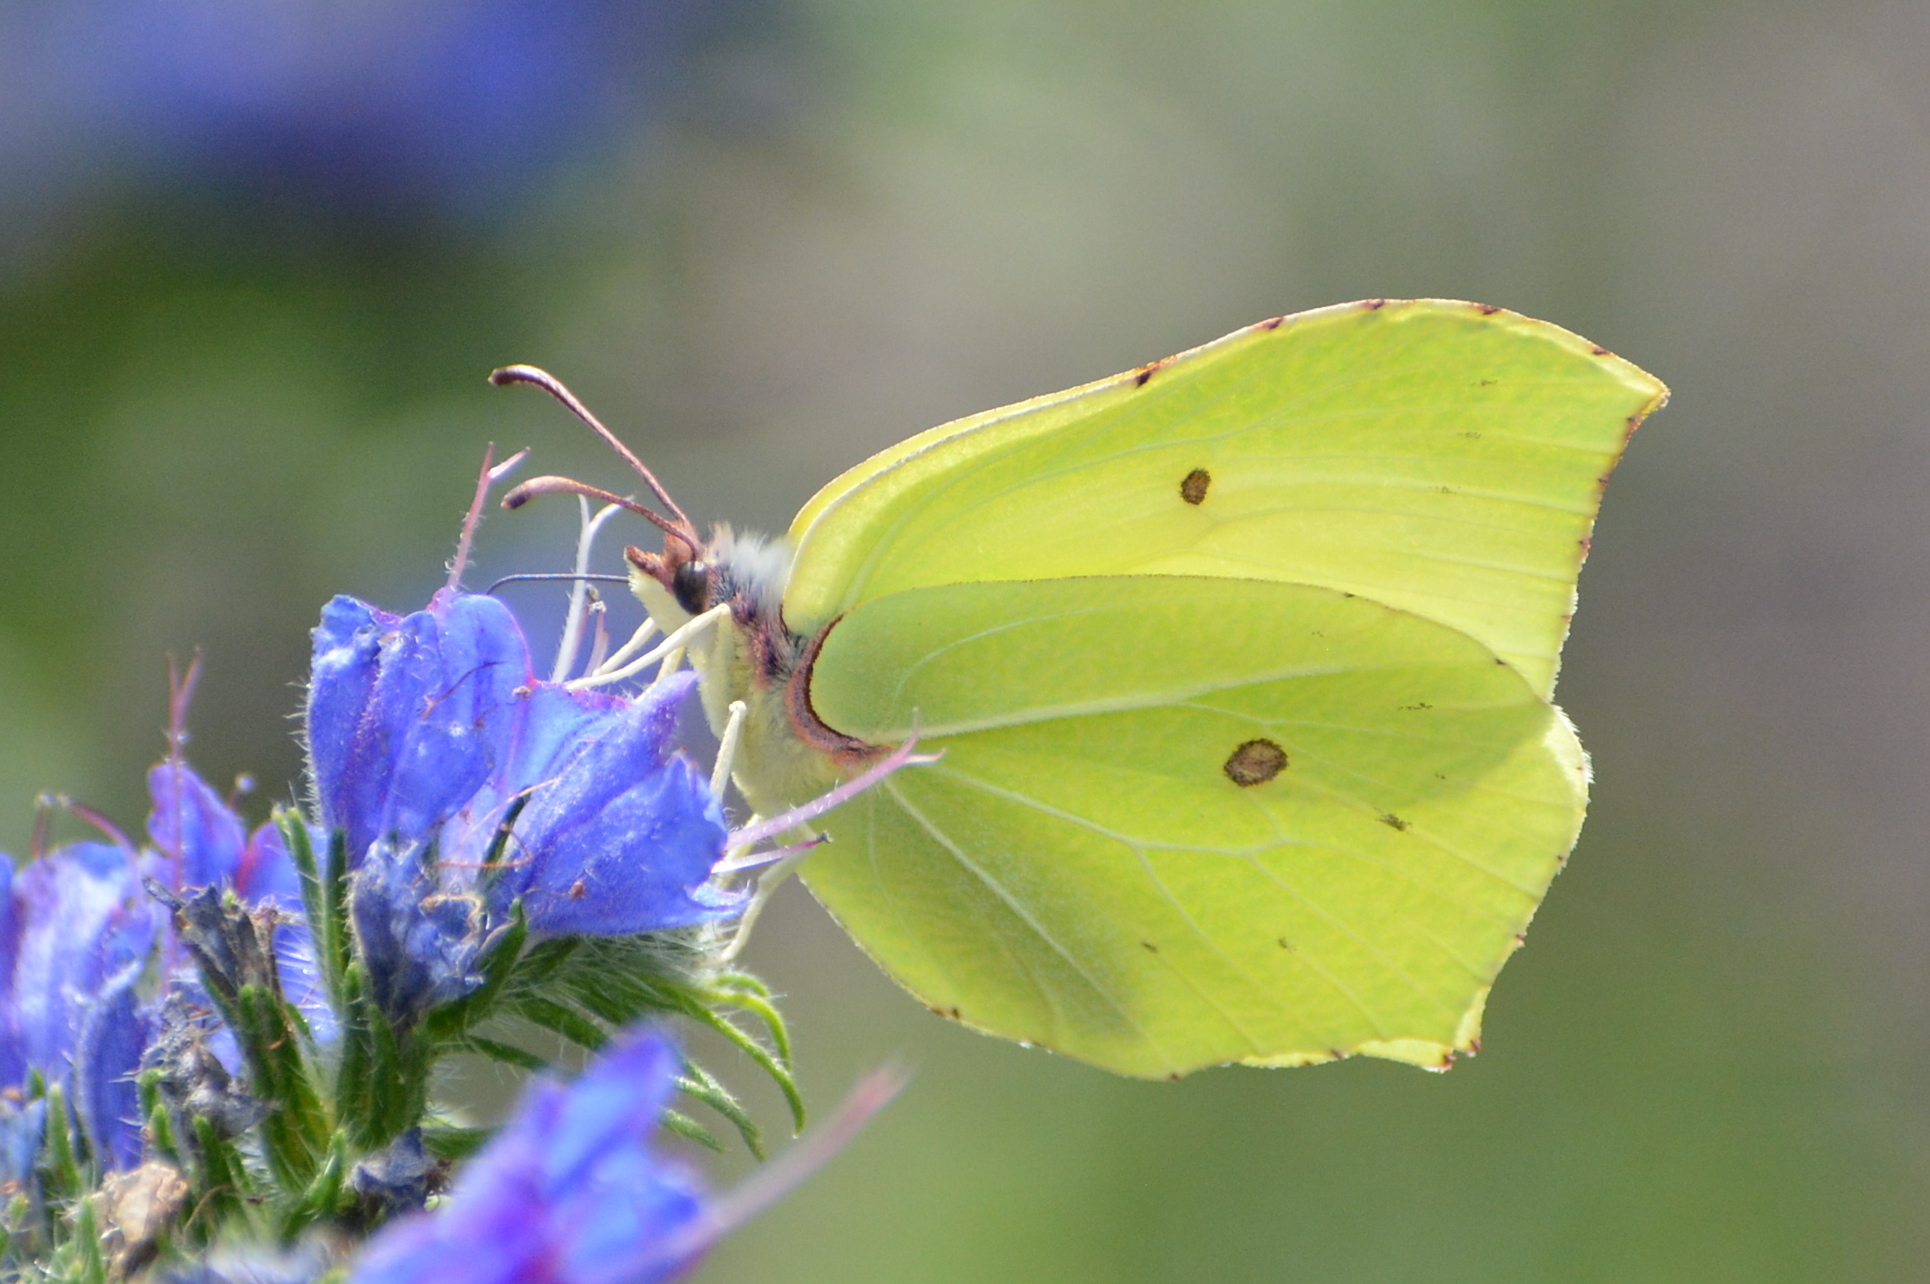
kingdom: Animalia
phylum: Arthropoda
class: Insecta
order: Lepidoptera
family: Pieridae
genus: Gonepteryx
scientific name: Gonepteryx rhamni
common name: Brimstone
